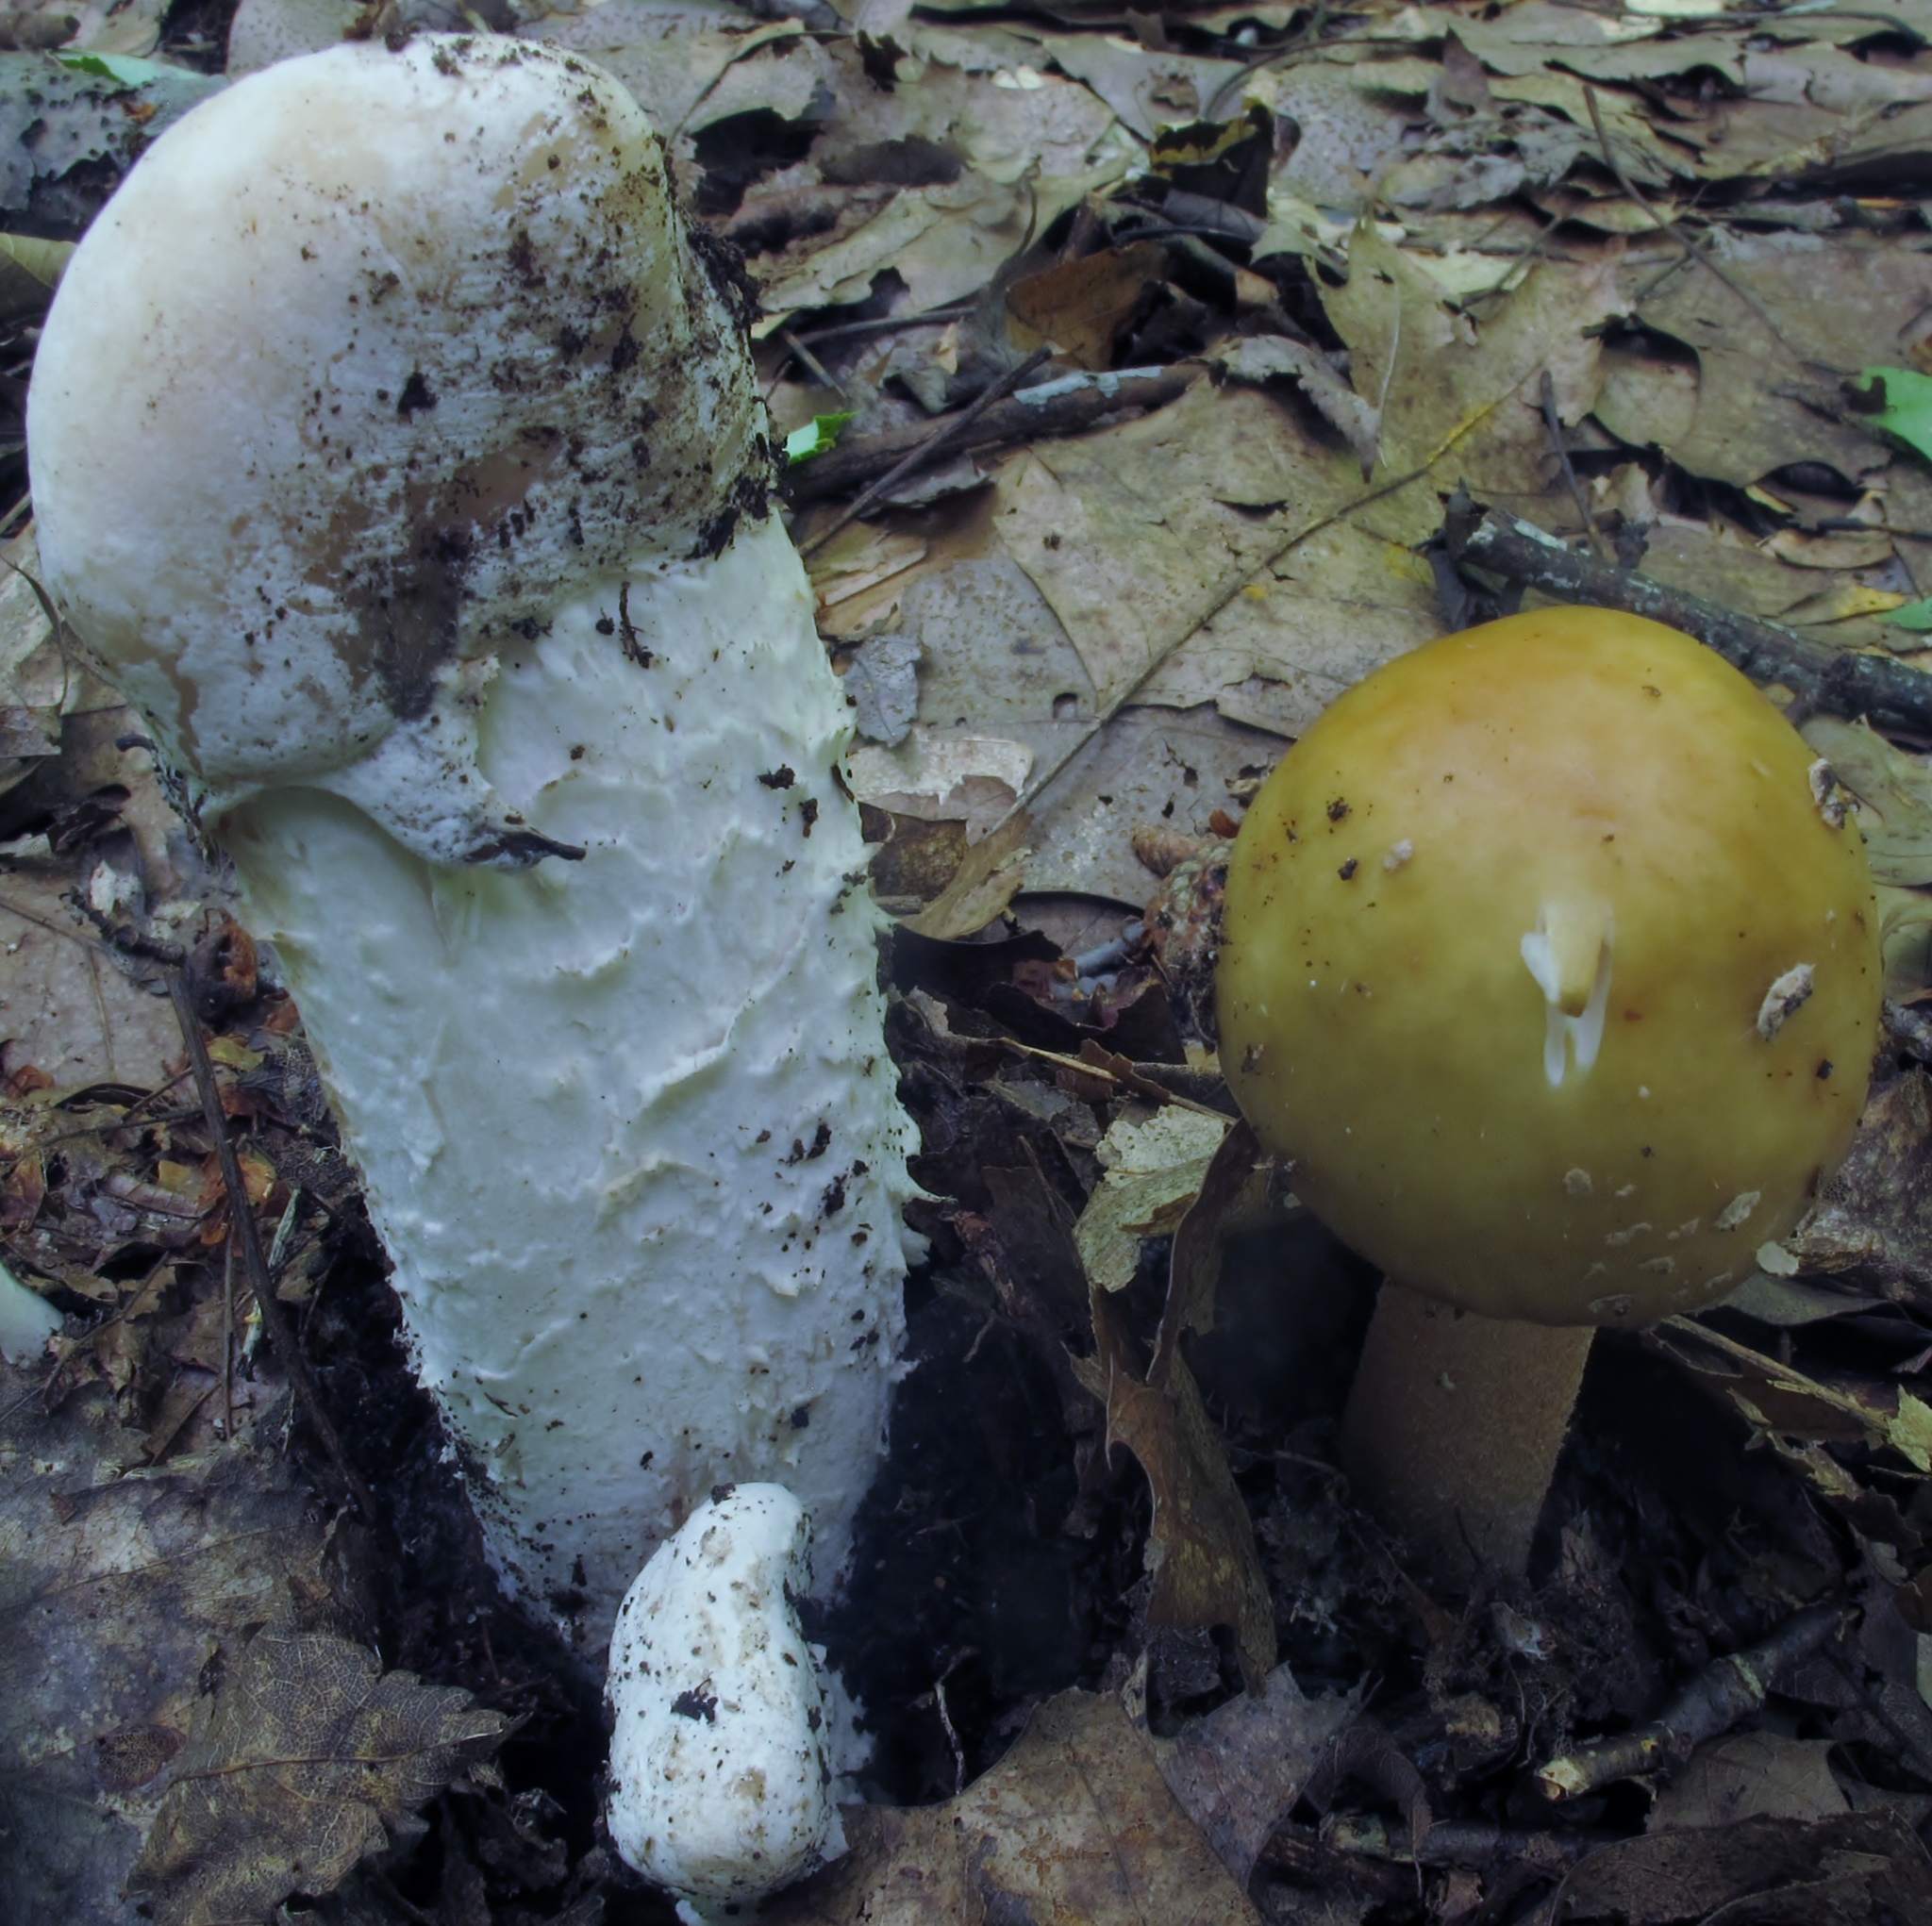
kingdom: Fungi
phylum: Ascomycota
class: Sordariomycetes
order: Hypocreales
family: Hypocreaceae
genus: Hypomyces
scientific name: Hypomyces hyalinus
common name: Amanita mold
